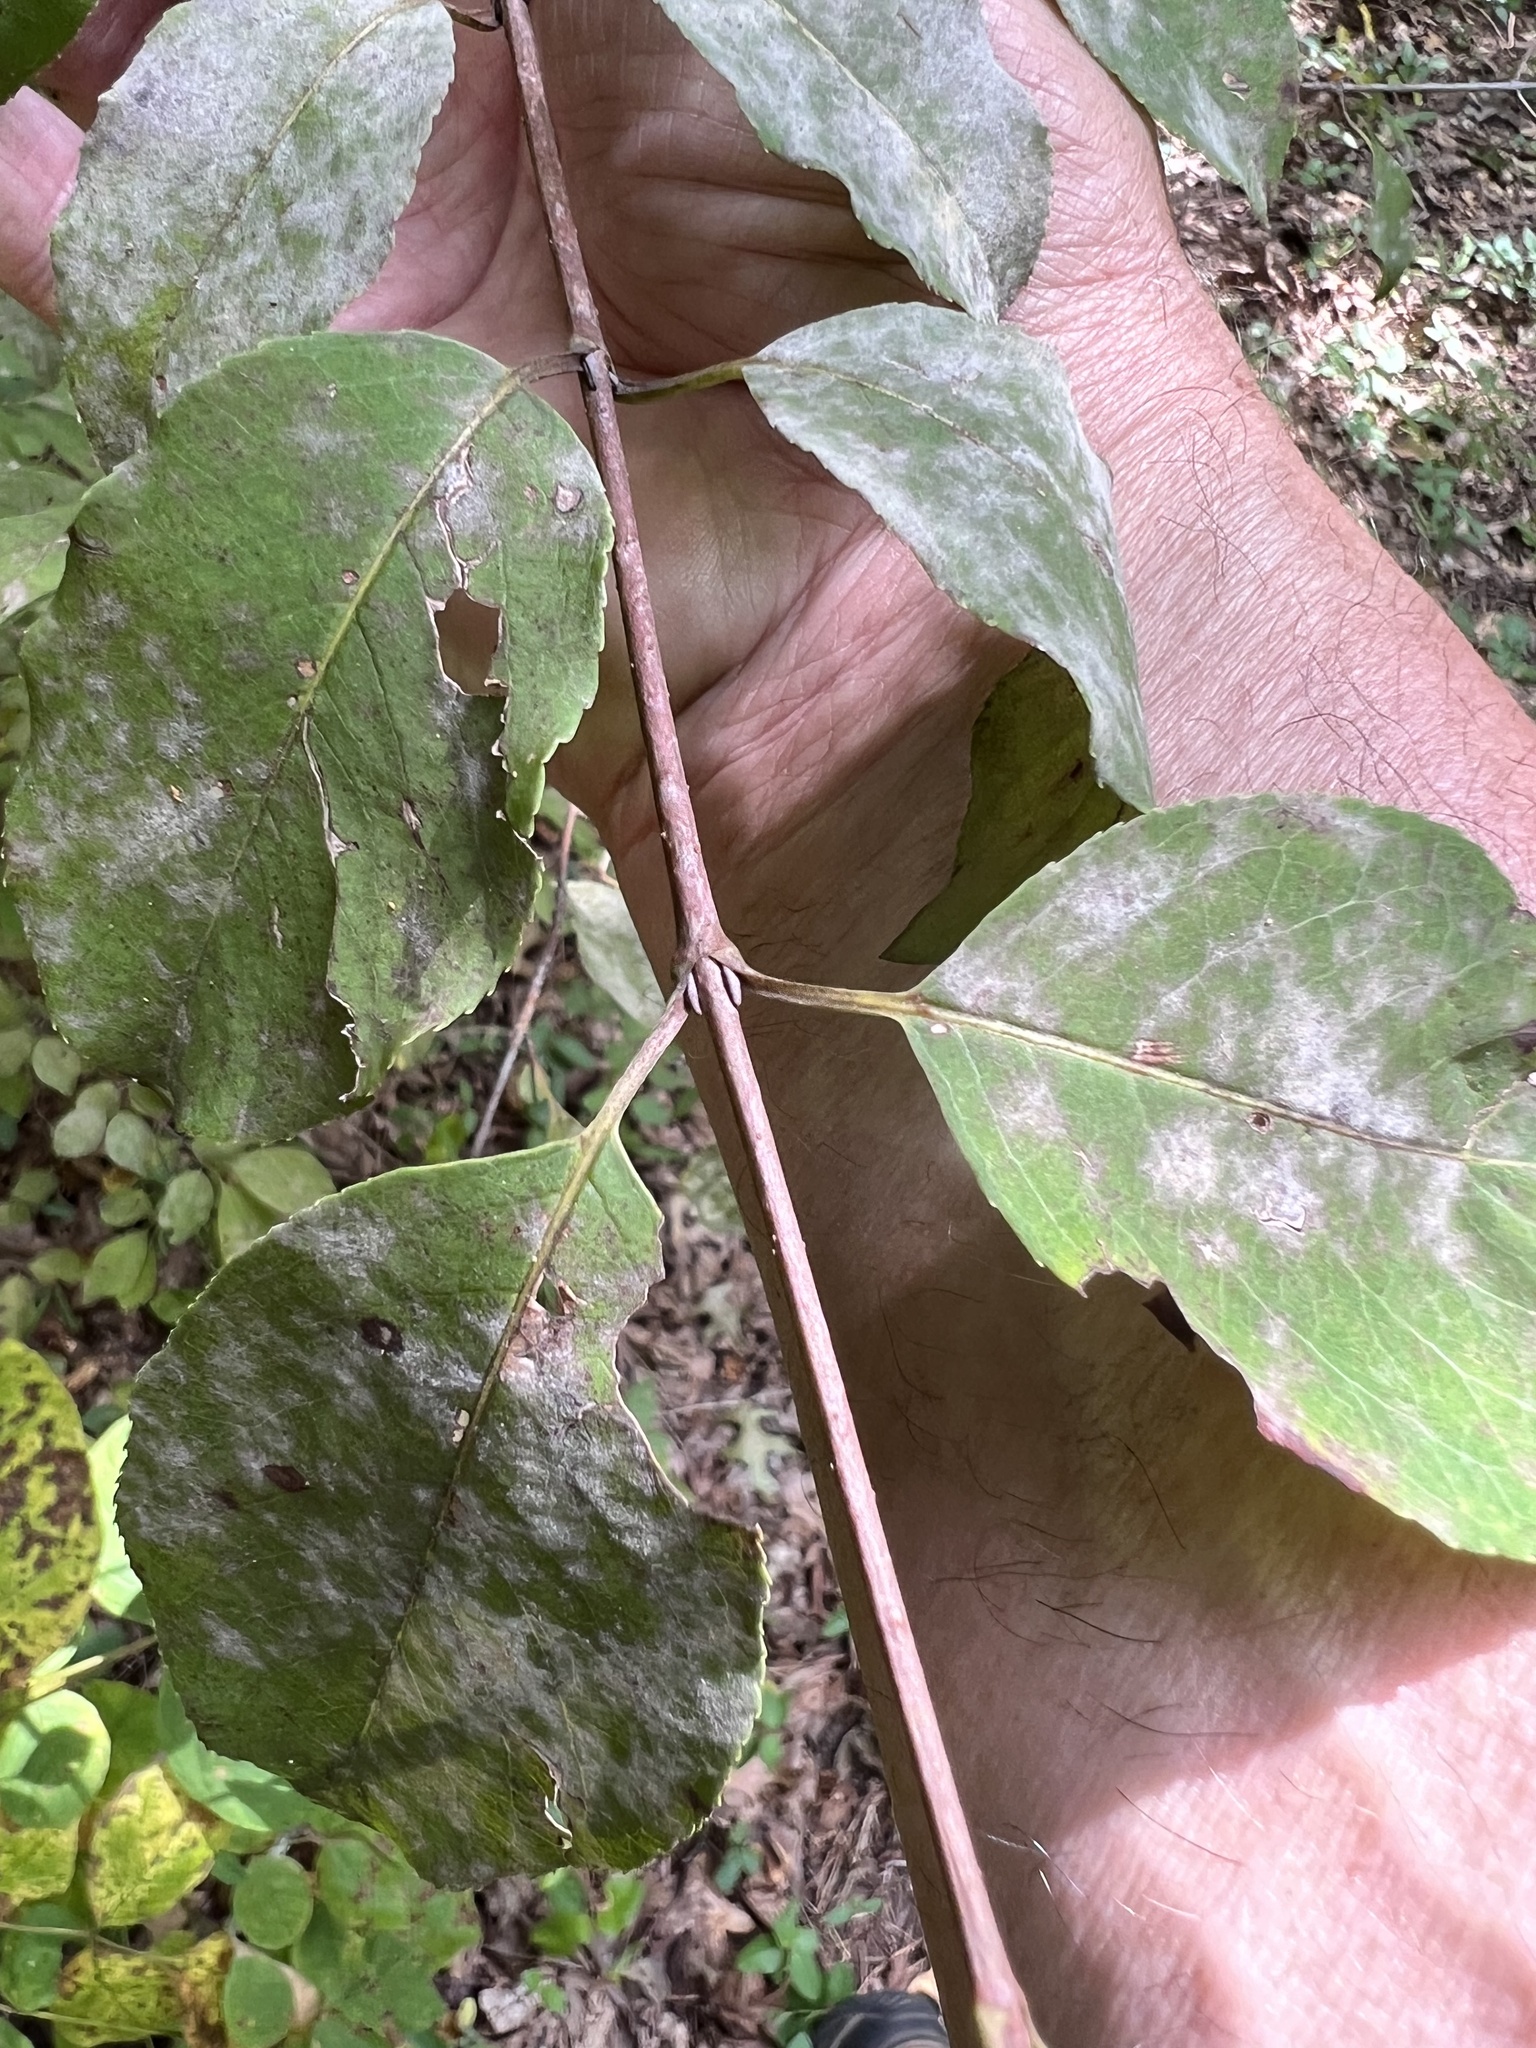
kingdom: Fungi
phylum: Ascomycota
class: Leotiomycetes
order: Helotiales
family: Erysiphaceae
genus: Erysiphe
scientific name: Erysiphe viburni
